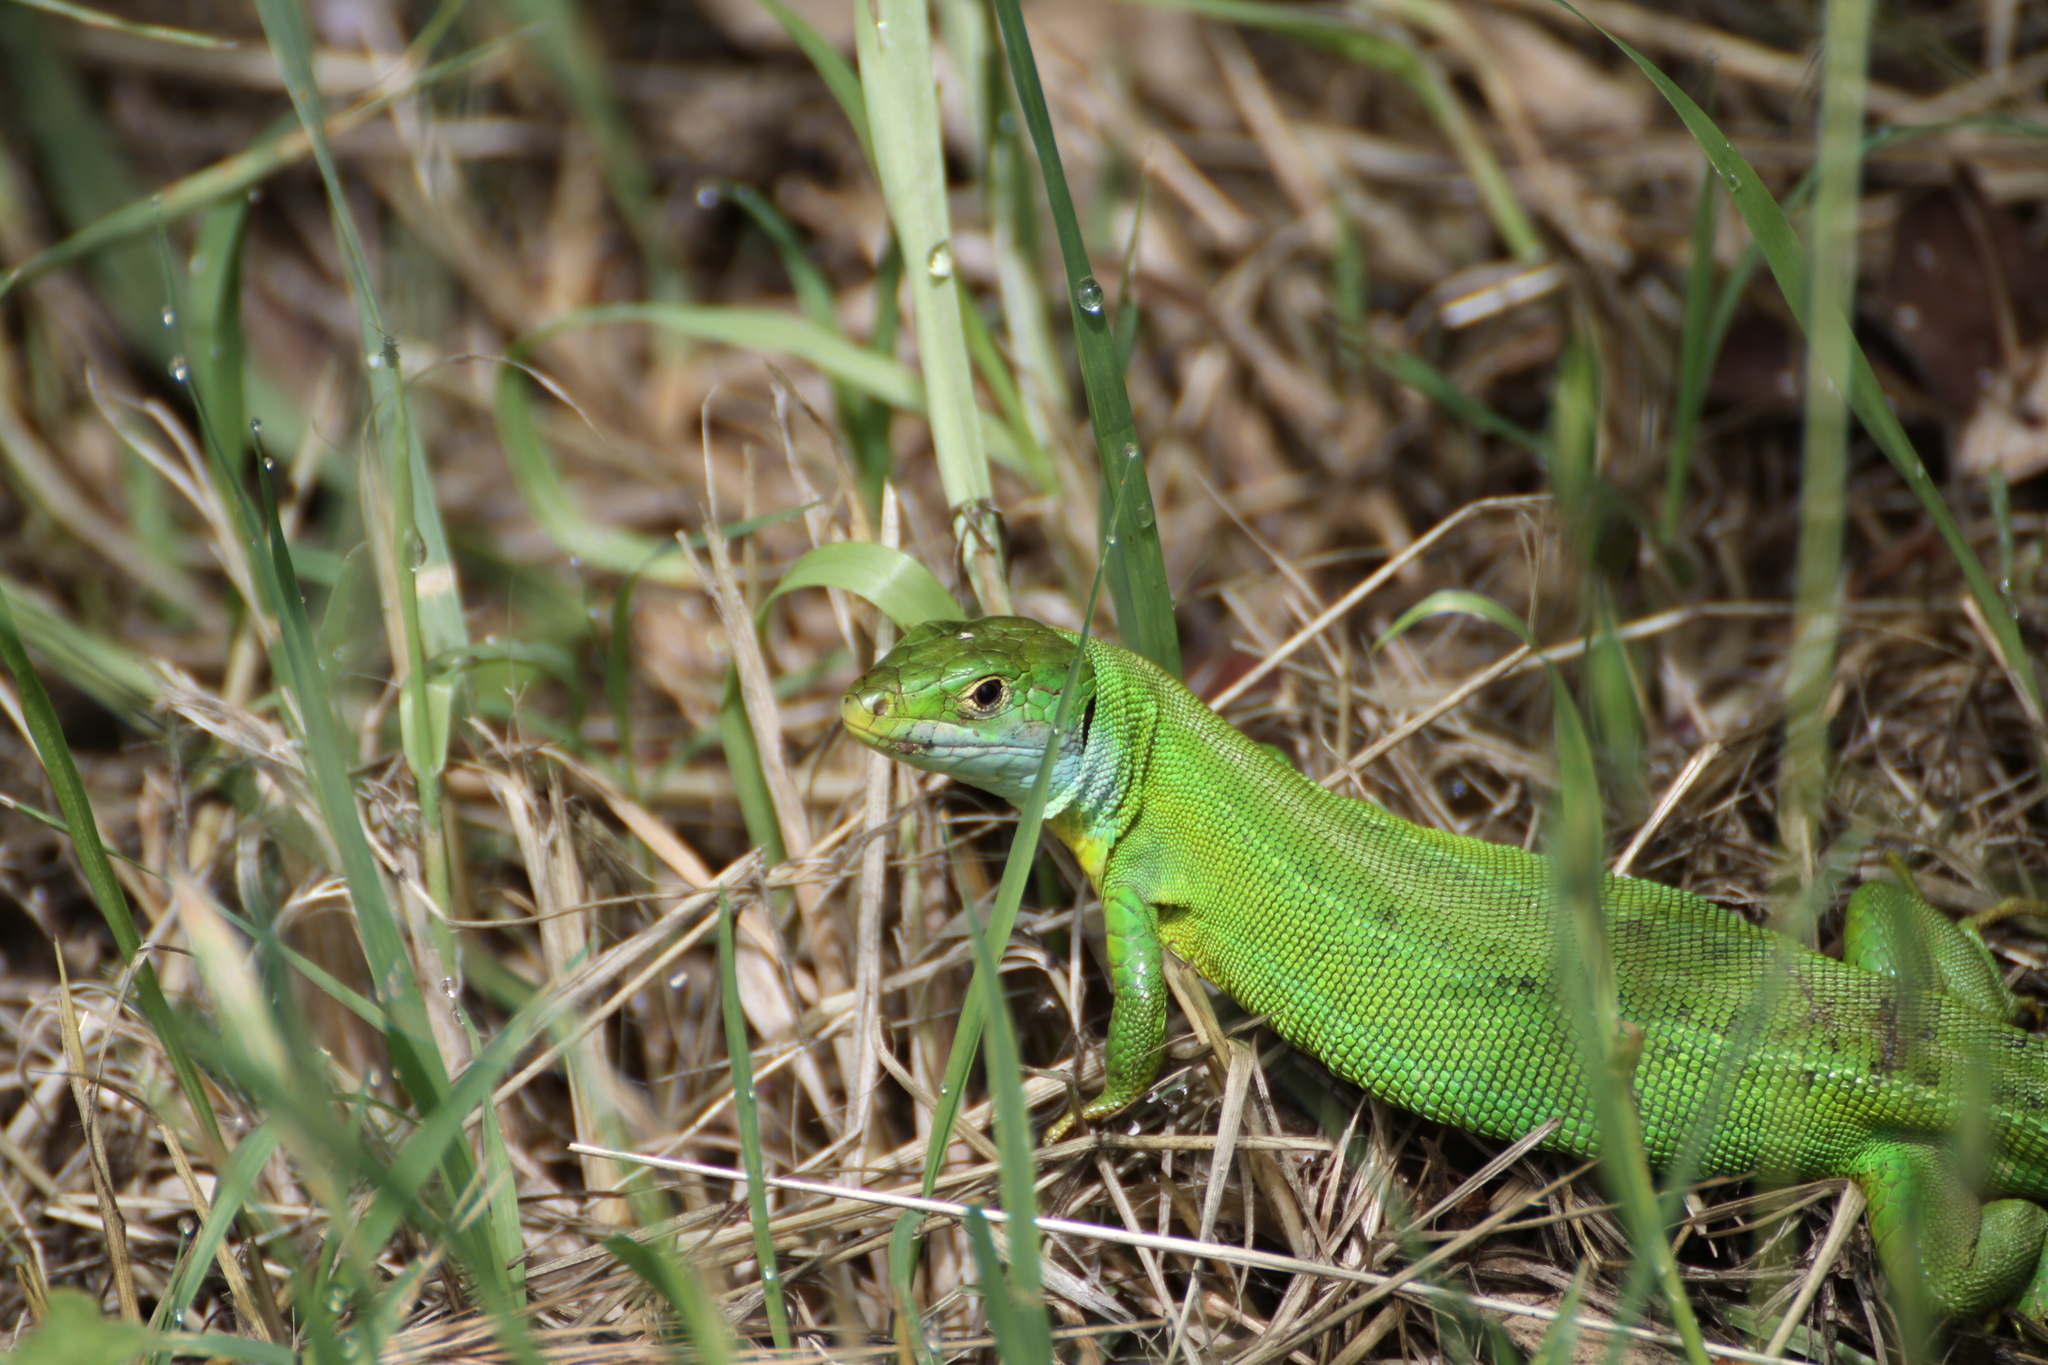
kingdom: Animalia
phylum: Chordata
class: Squamata
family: Lacertidae
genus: Lacerta
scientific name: Lacerta bilineata
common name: Western green lizard
